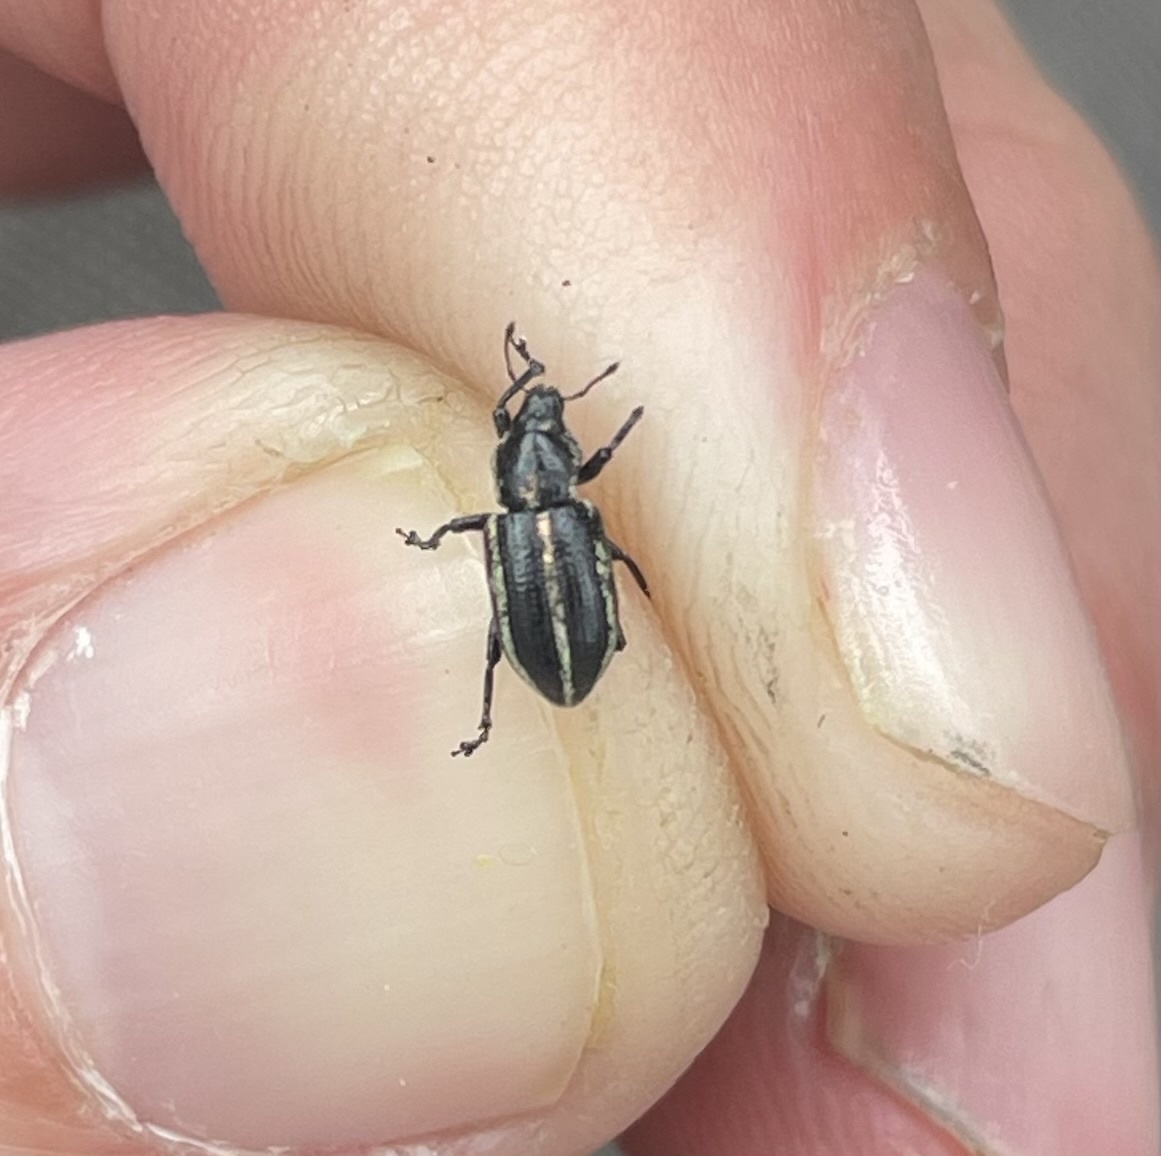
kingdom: Animalia
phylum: Arthropoda
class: Insecta
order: Coleoptera
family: Curculionidae
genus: Eudiagogus
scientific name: Eudiagogus pulcher
